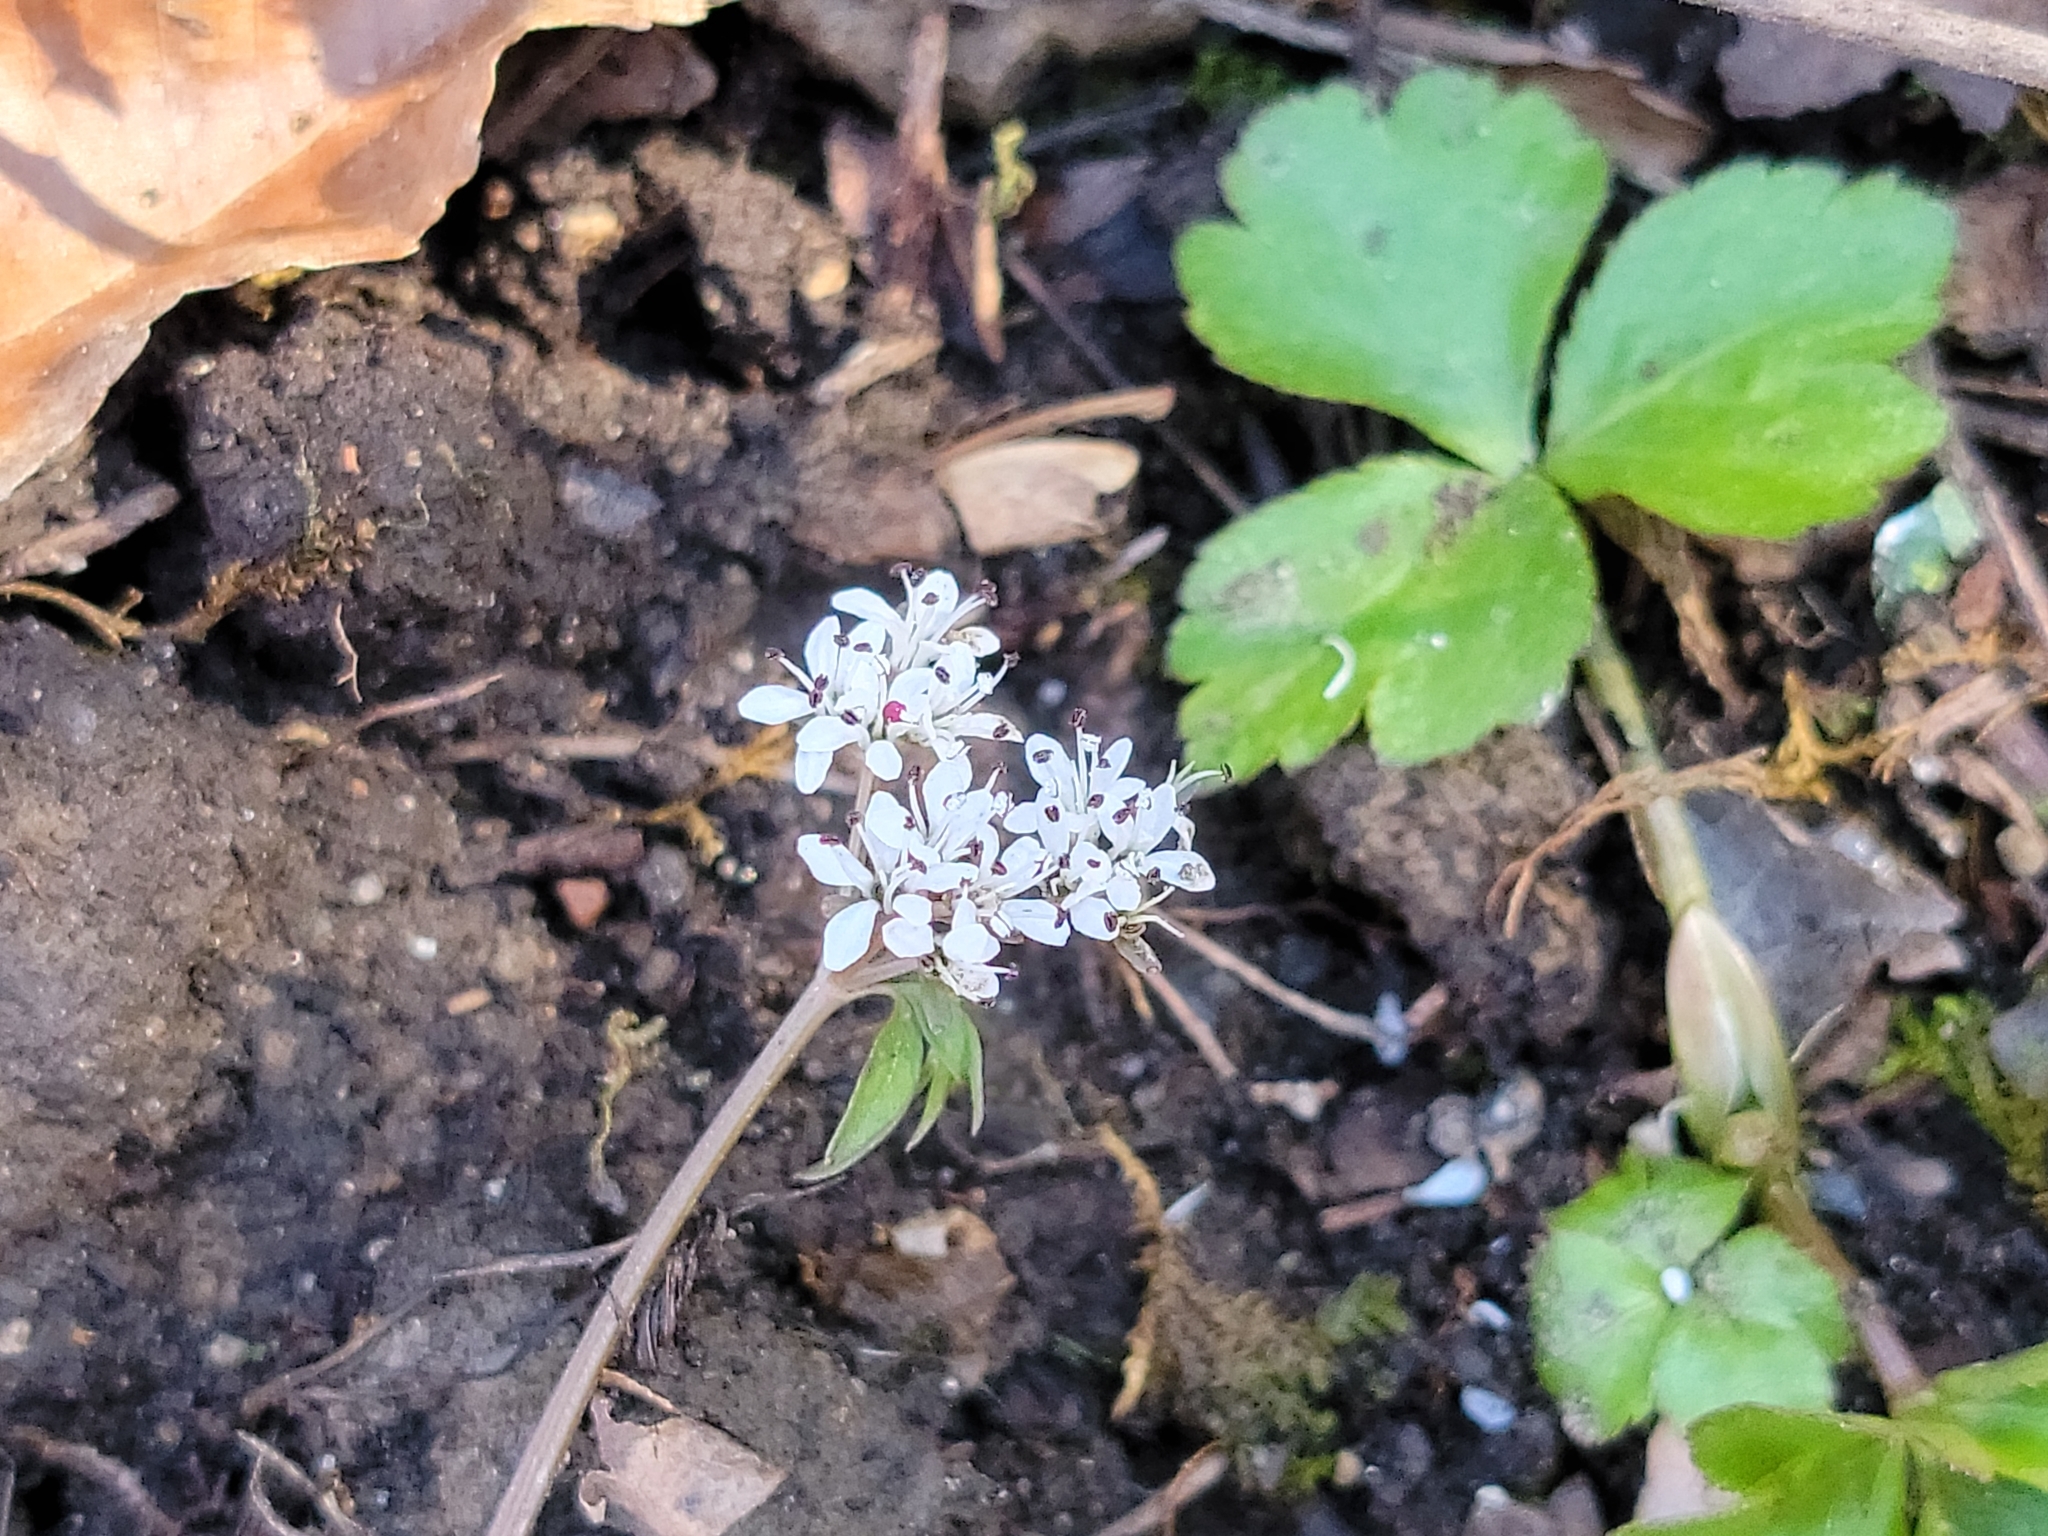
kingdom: Plantae
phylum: Tracheophyta
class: Magnoliopsida
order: Apiales
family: Apiaceae
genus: Erigenia
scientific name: Erigenia bulbosa
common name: Pepper-and-salt
